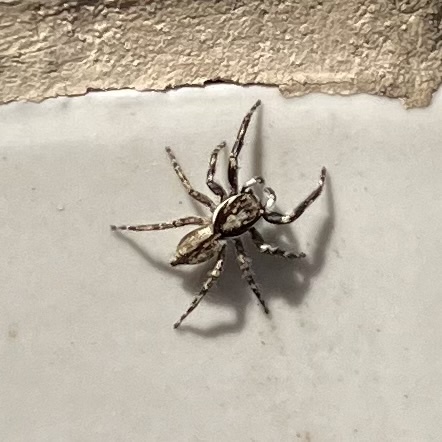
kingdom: Animalia
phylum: Arthropoda
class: Arachnida
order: Araneae
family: Salticidae
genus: Menemerus
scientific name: Menemerus bivittatus
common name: Gray wall jumper
